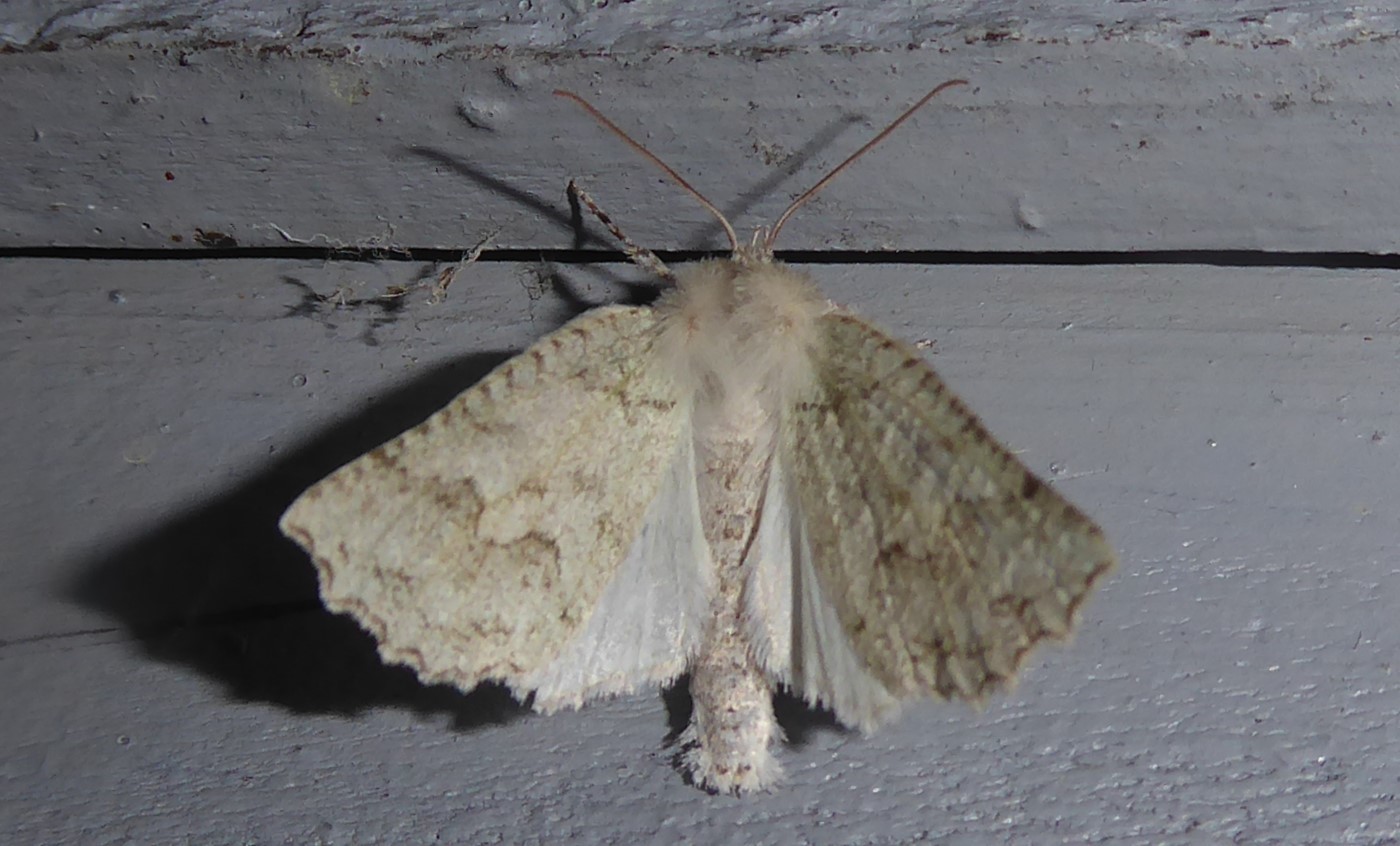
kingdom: Animalia
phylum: Arthropoda
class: Insecta
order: Lepidoptera
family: Geometridae
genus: Declana
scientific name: Declana niveata
